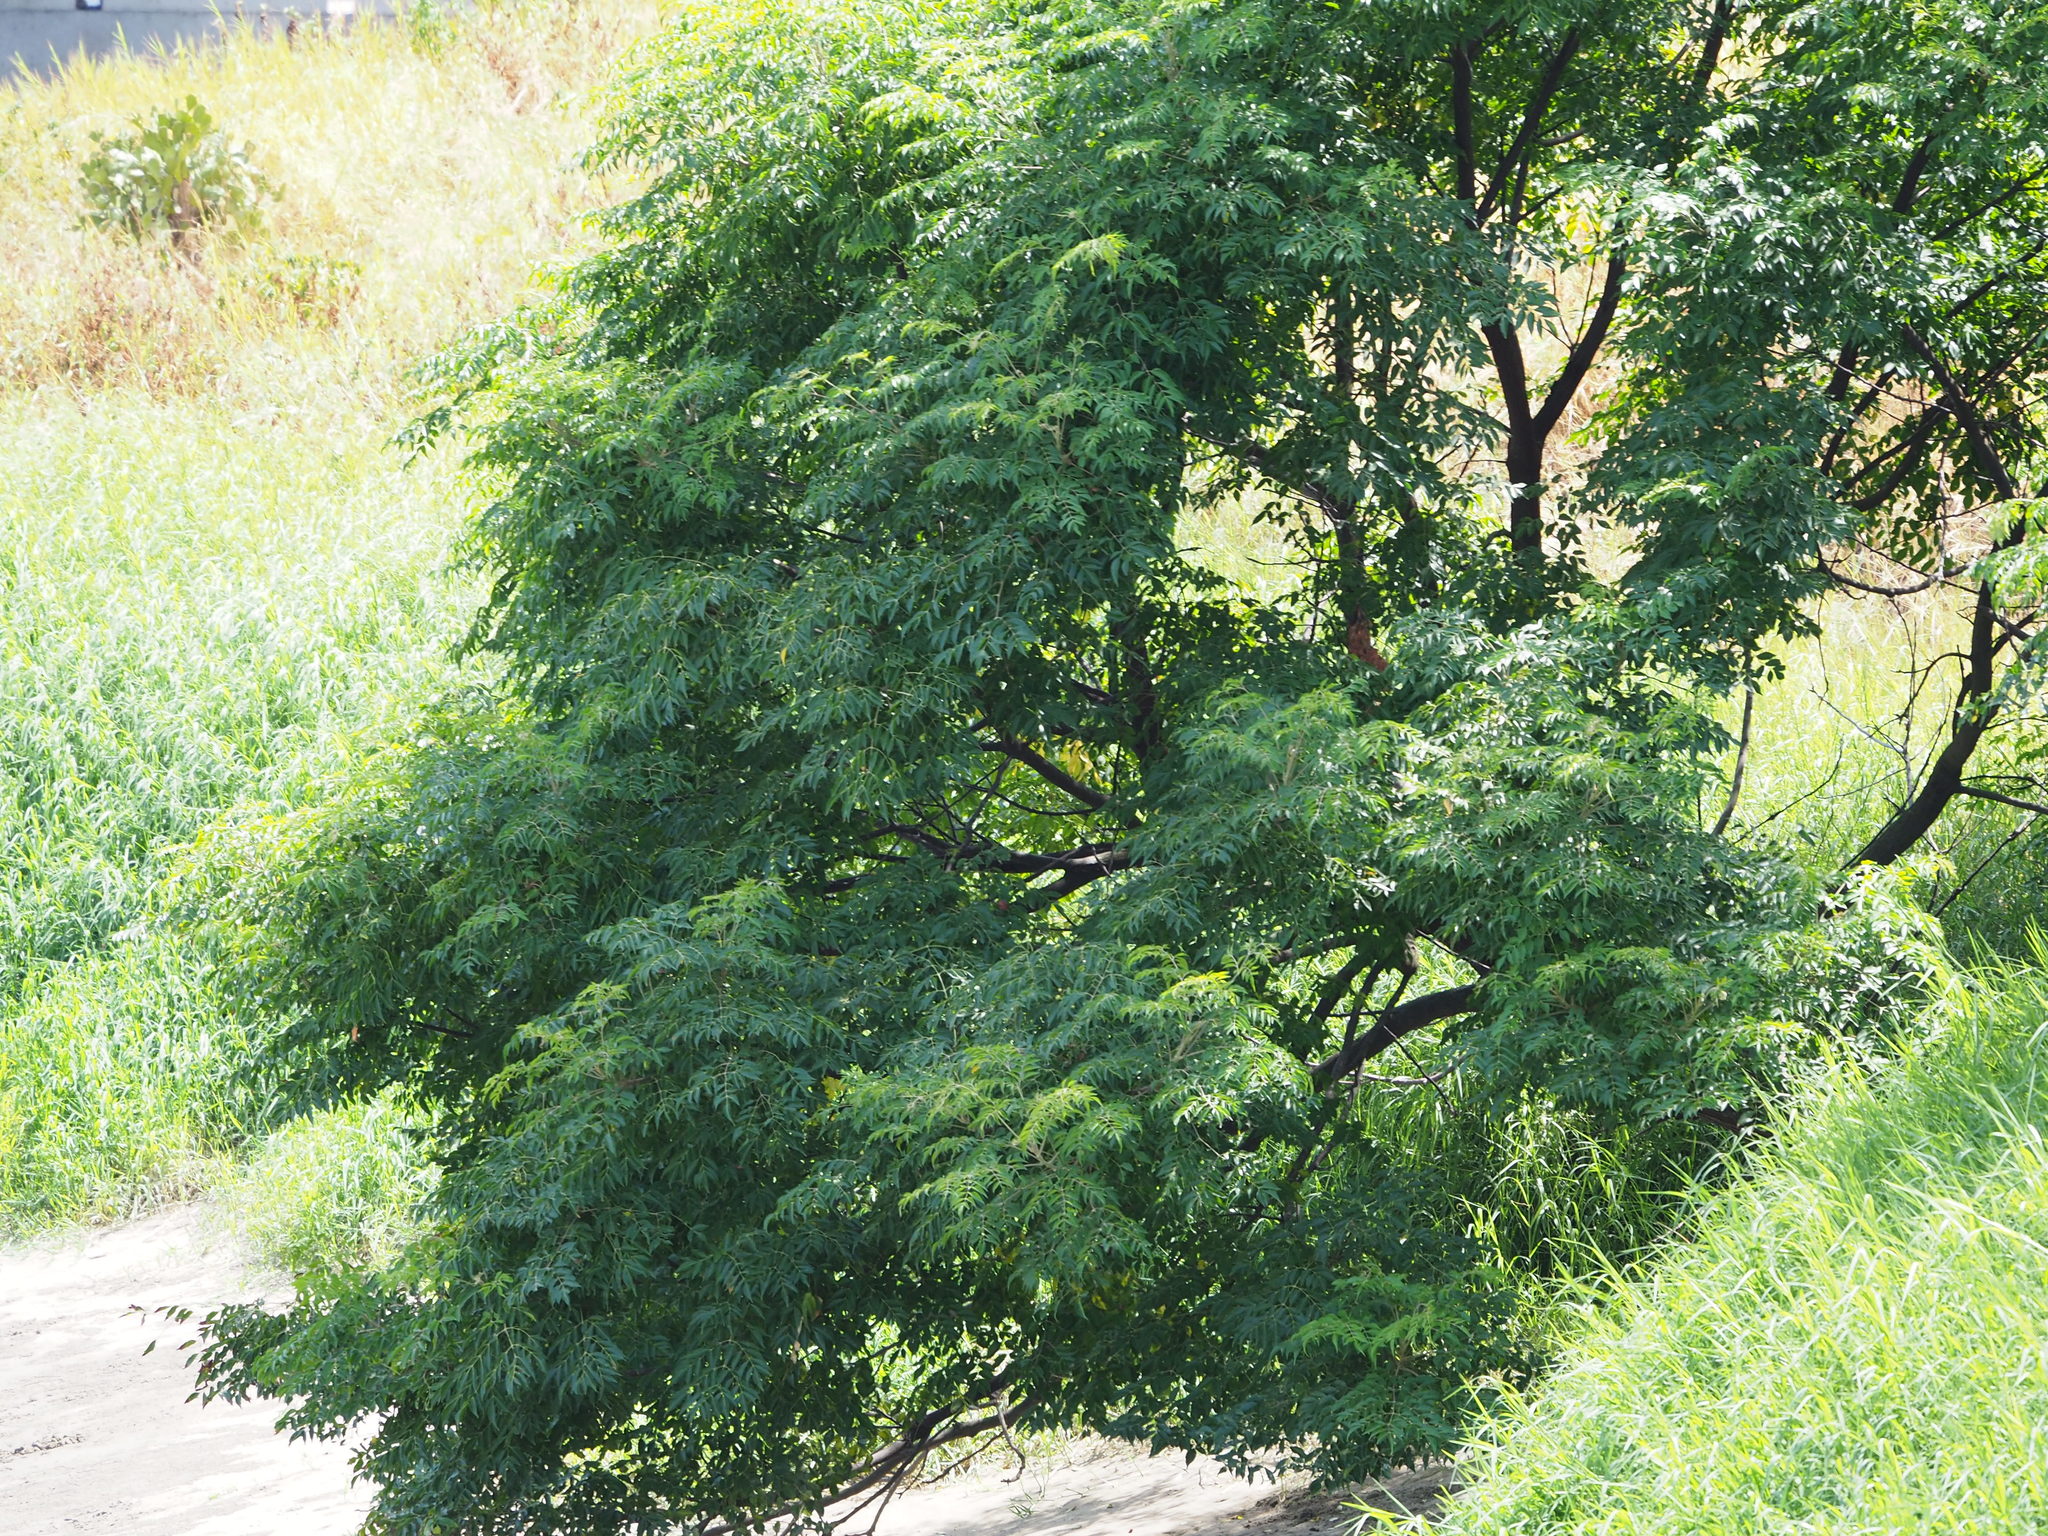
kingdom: Plantae
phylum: Tracheophyta
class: Magnoliopsida
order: Sapindales
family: Meliaceae
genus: Melia
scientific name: Melia azedarach
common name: Chinaberrytree
